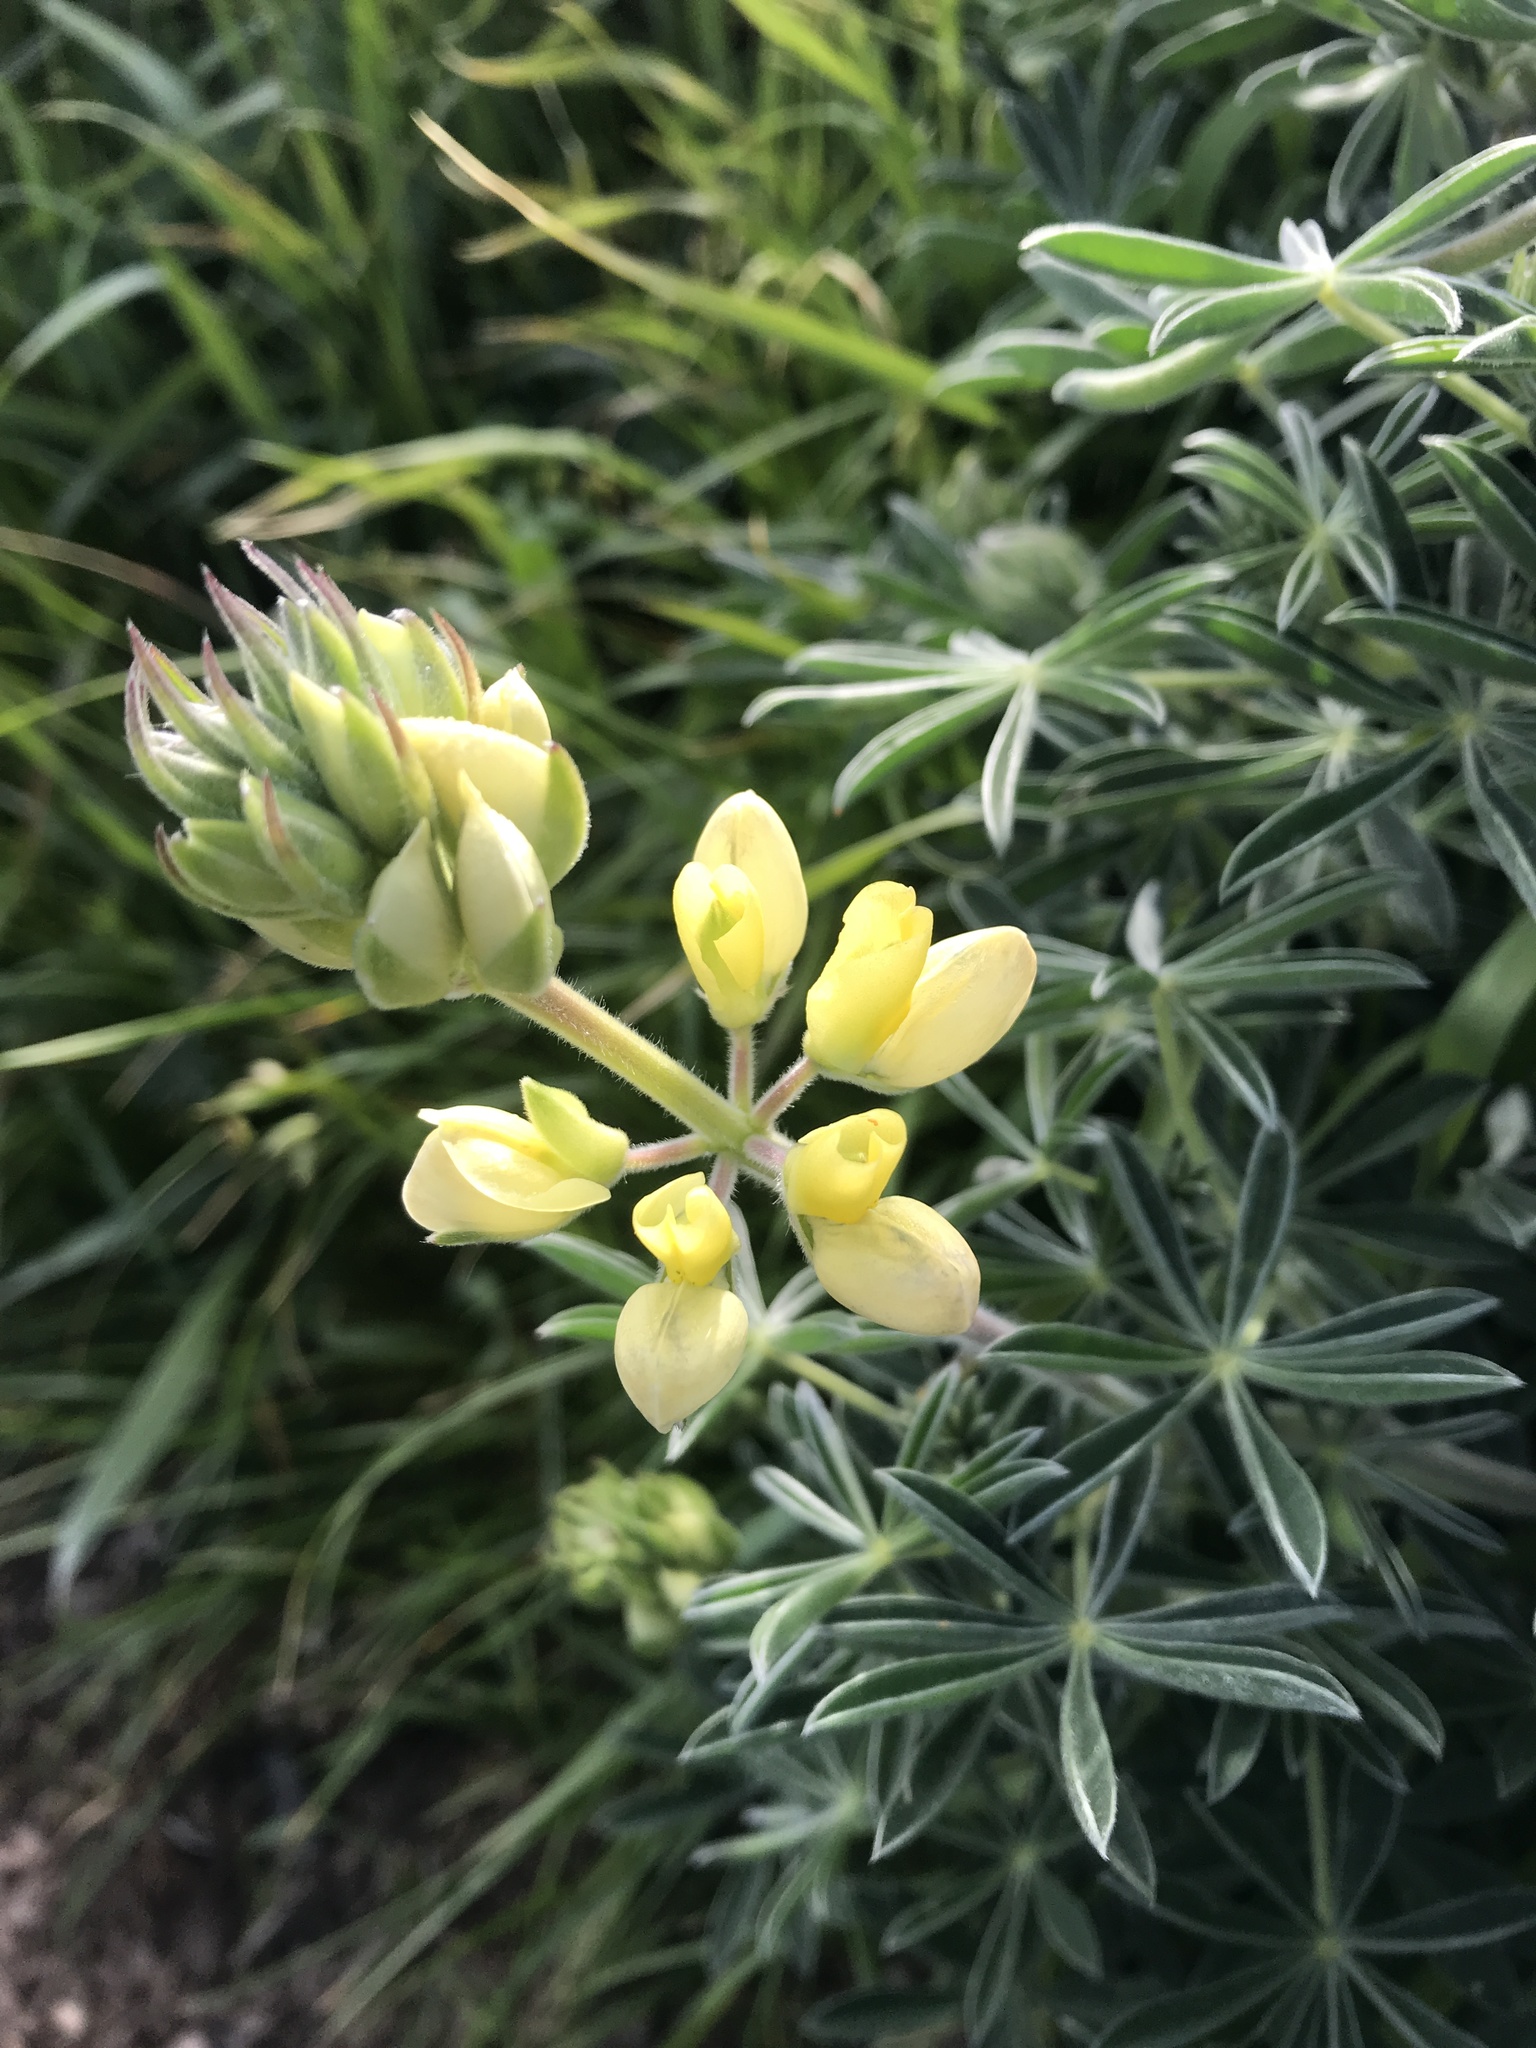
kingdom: Plantae
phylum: Tracheophyta
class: Magnoliopsida
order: Fabales
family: Fabaceae
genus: Lupinus
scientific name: Lupinus arboreus
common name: Yellow bush lupine
